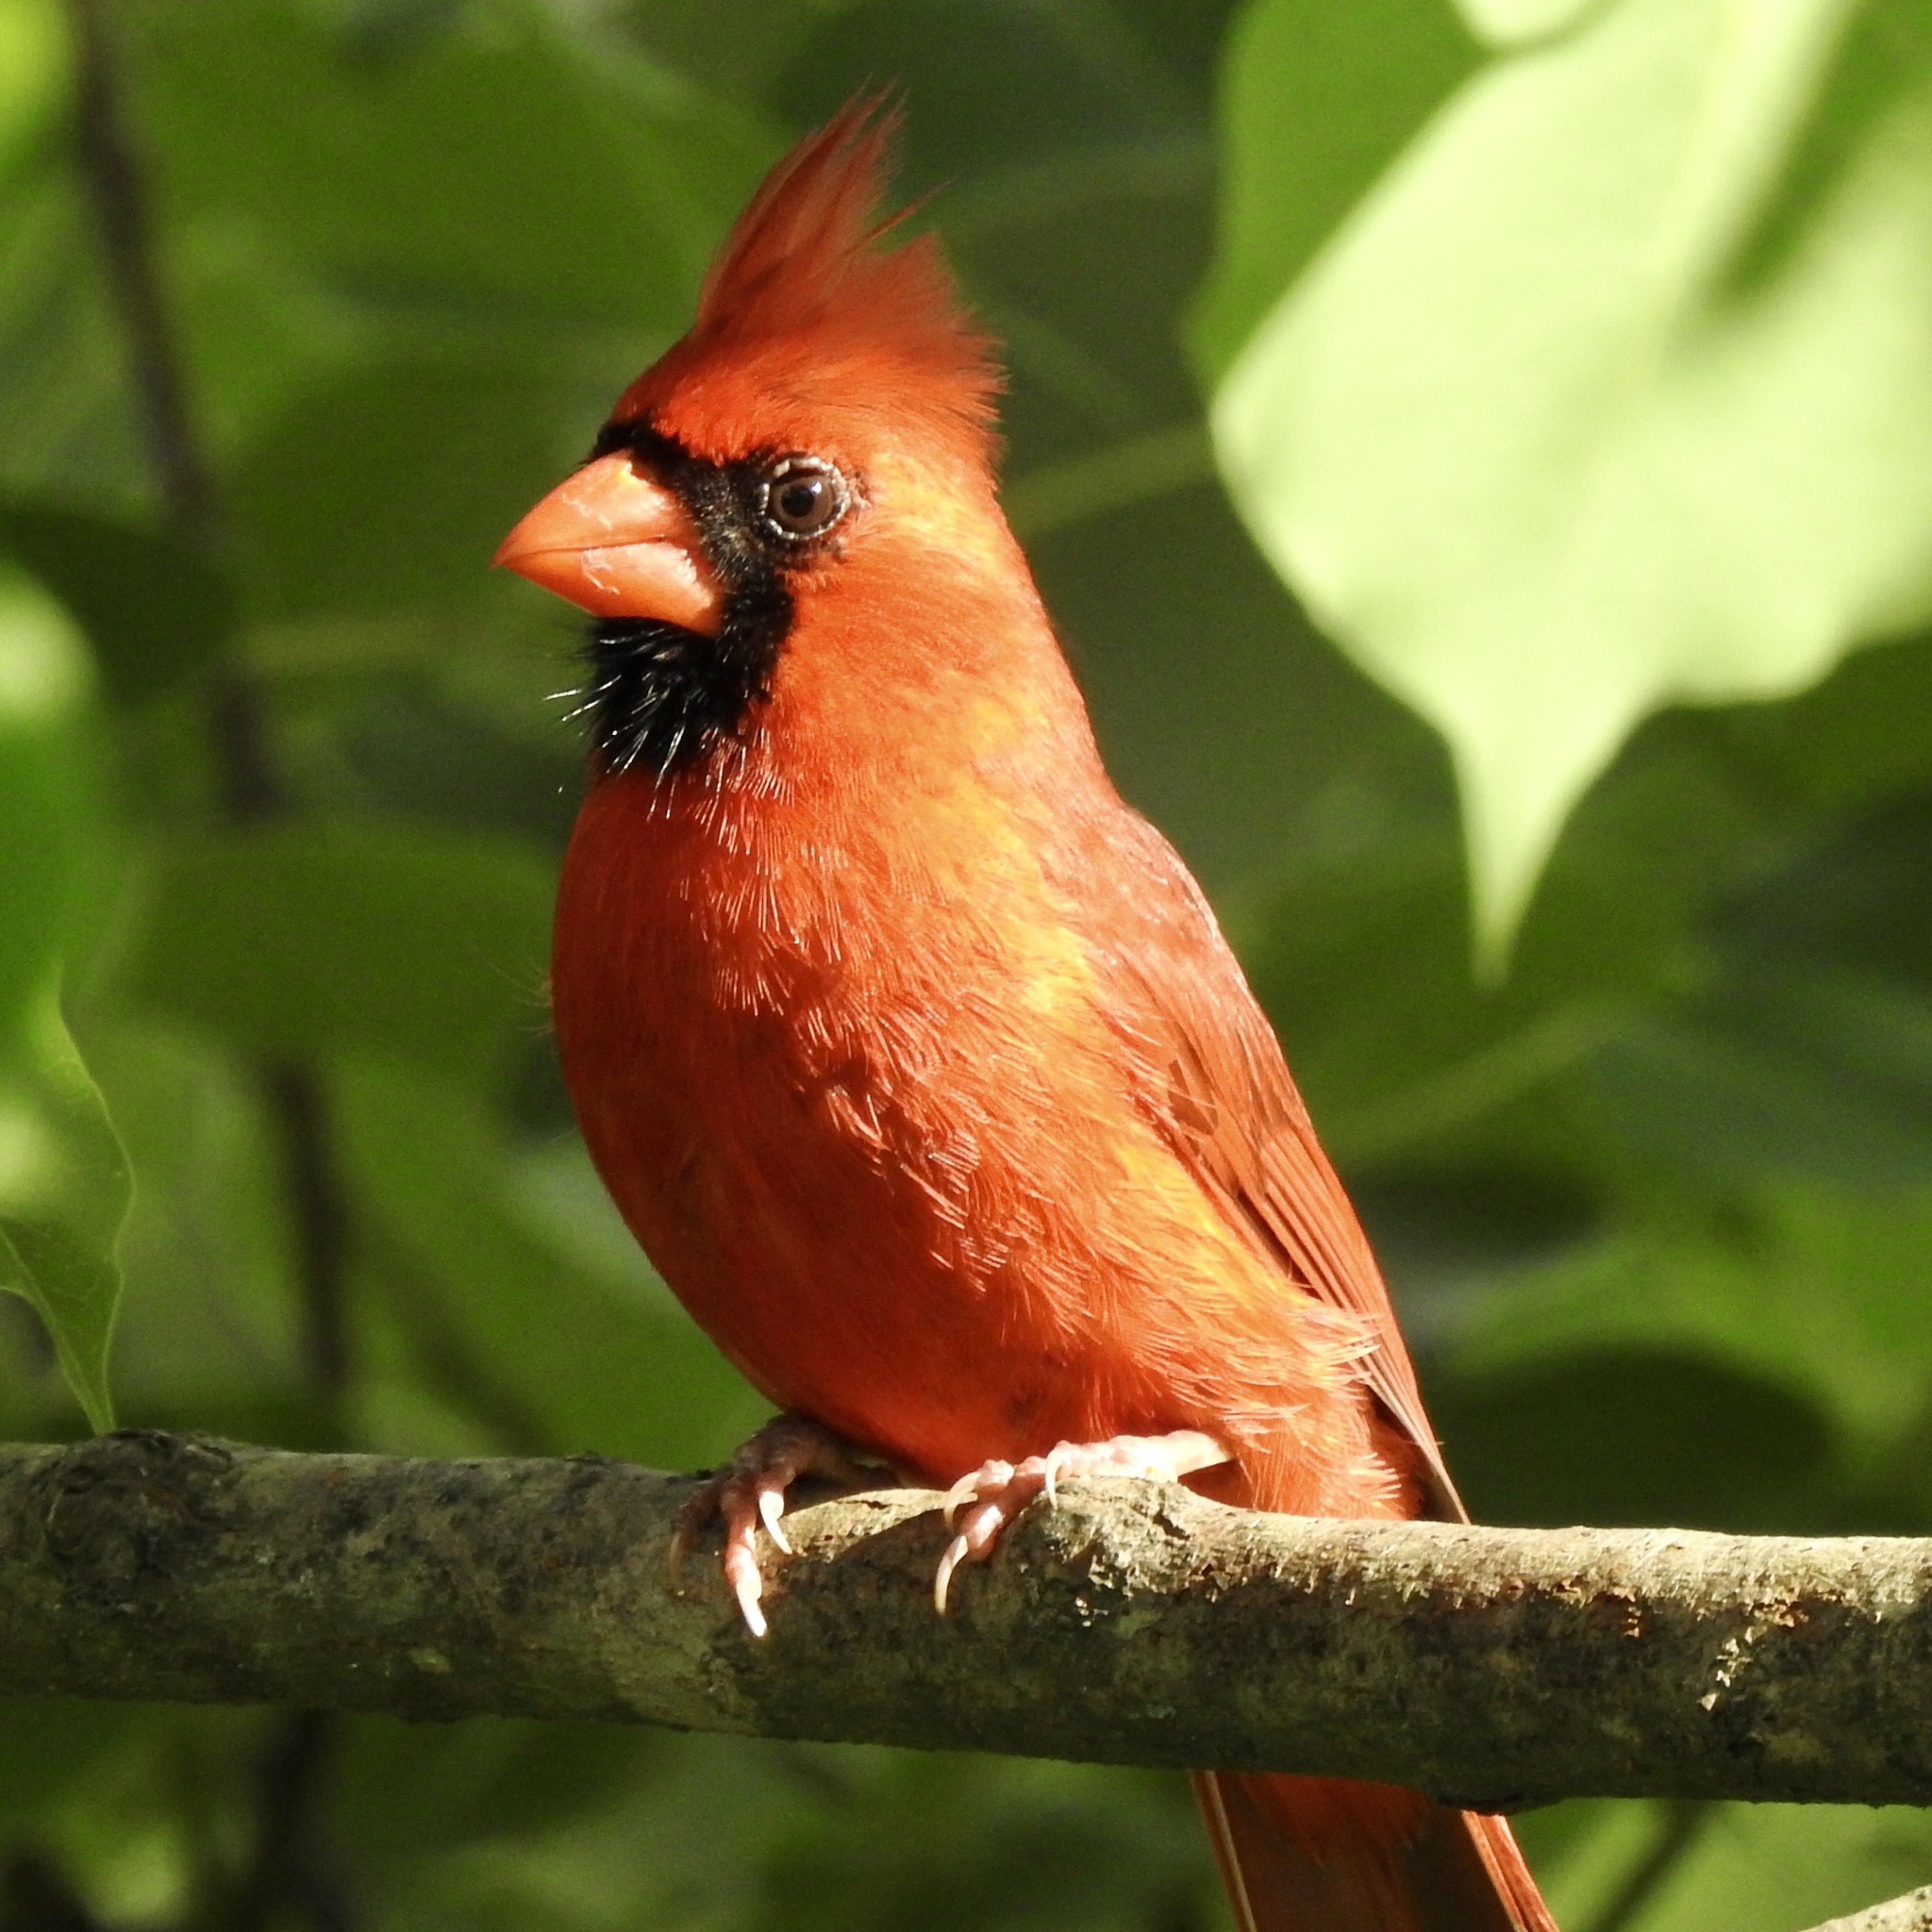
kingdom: Animalia
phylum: Chordata
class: Aves
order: Passeriformes
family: Cardinalidae
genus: Cardinalis
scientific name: Cardinalis cardinalis
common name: Northern cardinal
